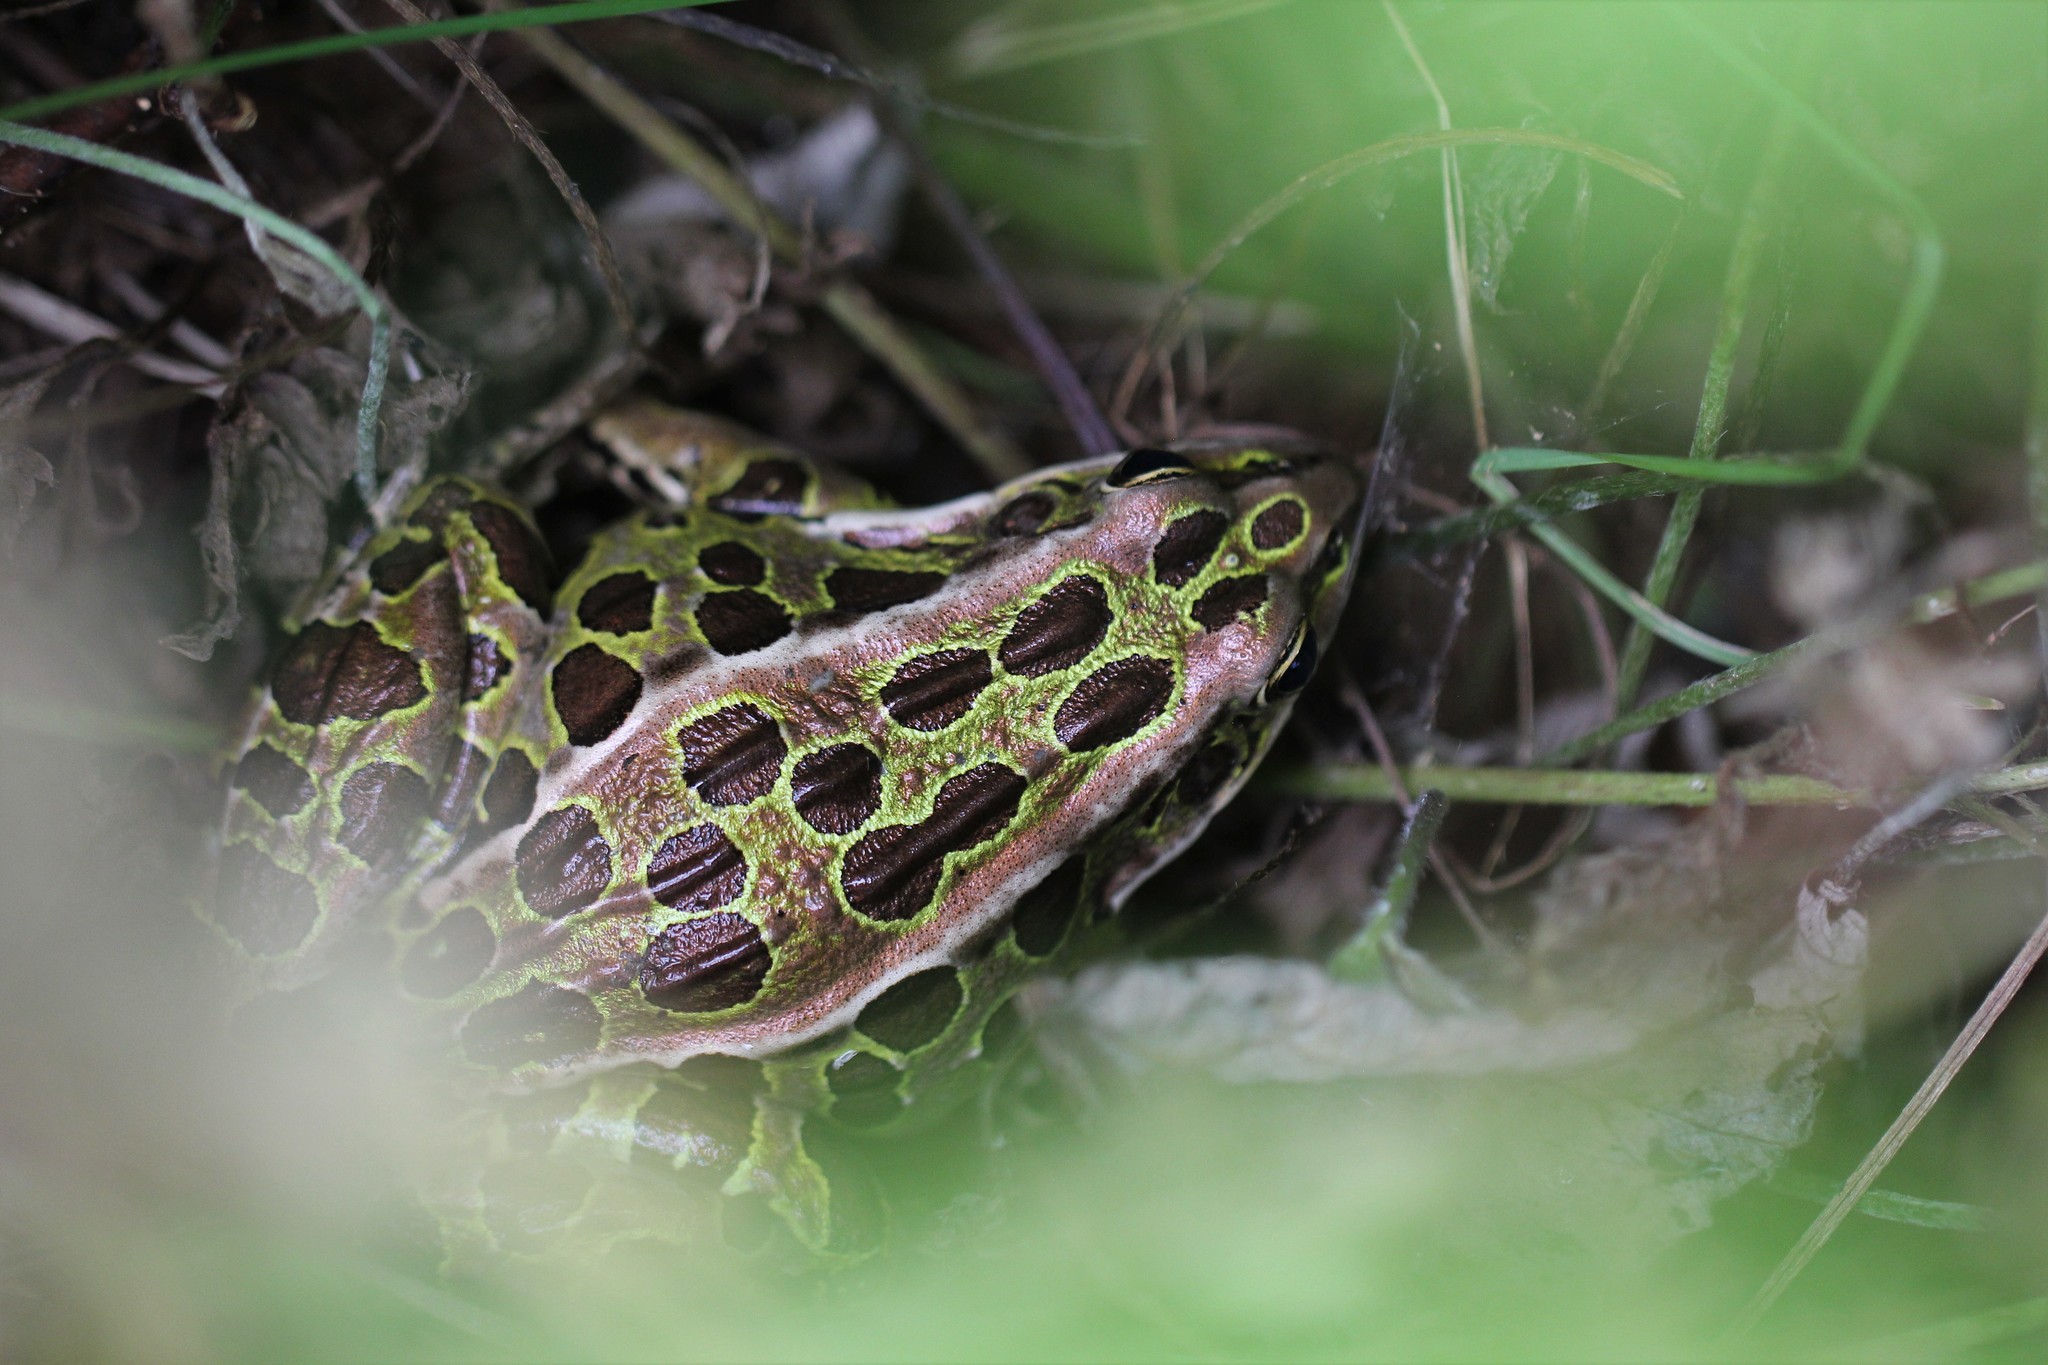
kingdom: Animalia
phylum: Chordata
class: Amphibia
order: Anura
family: Ranidae
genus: Lithobates
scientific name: Lithobates pipiens
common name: Northern leopard frog
